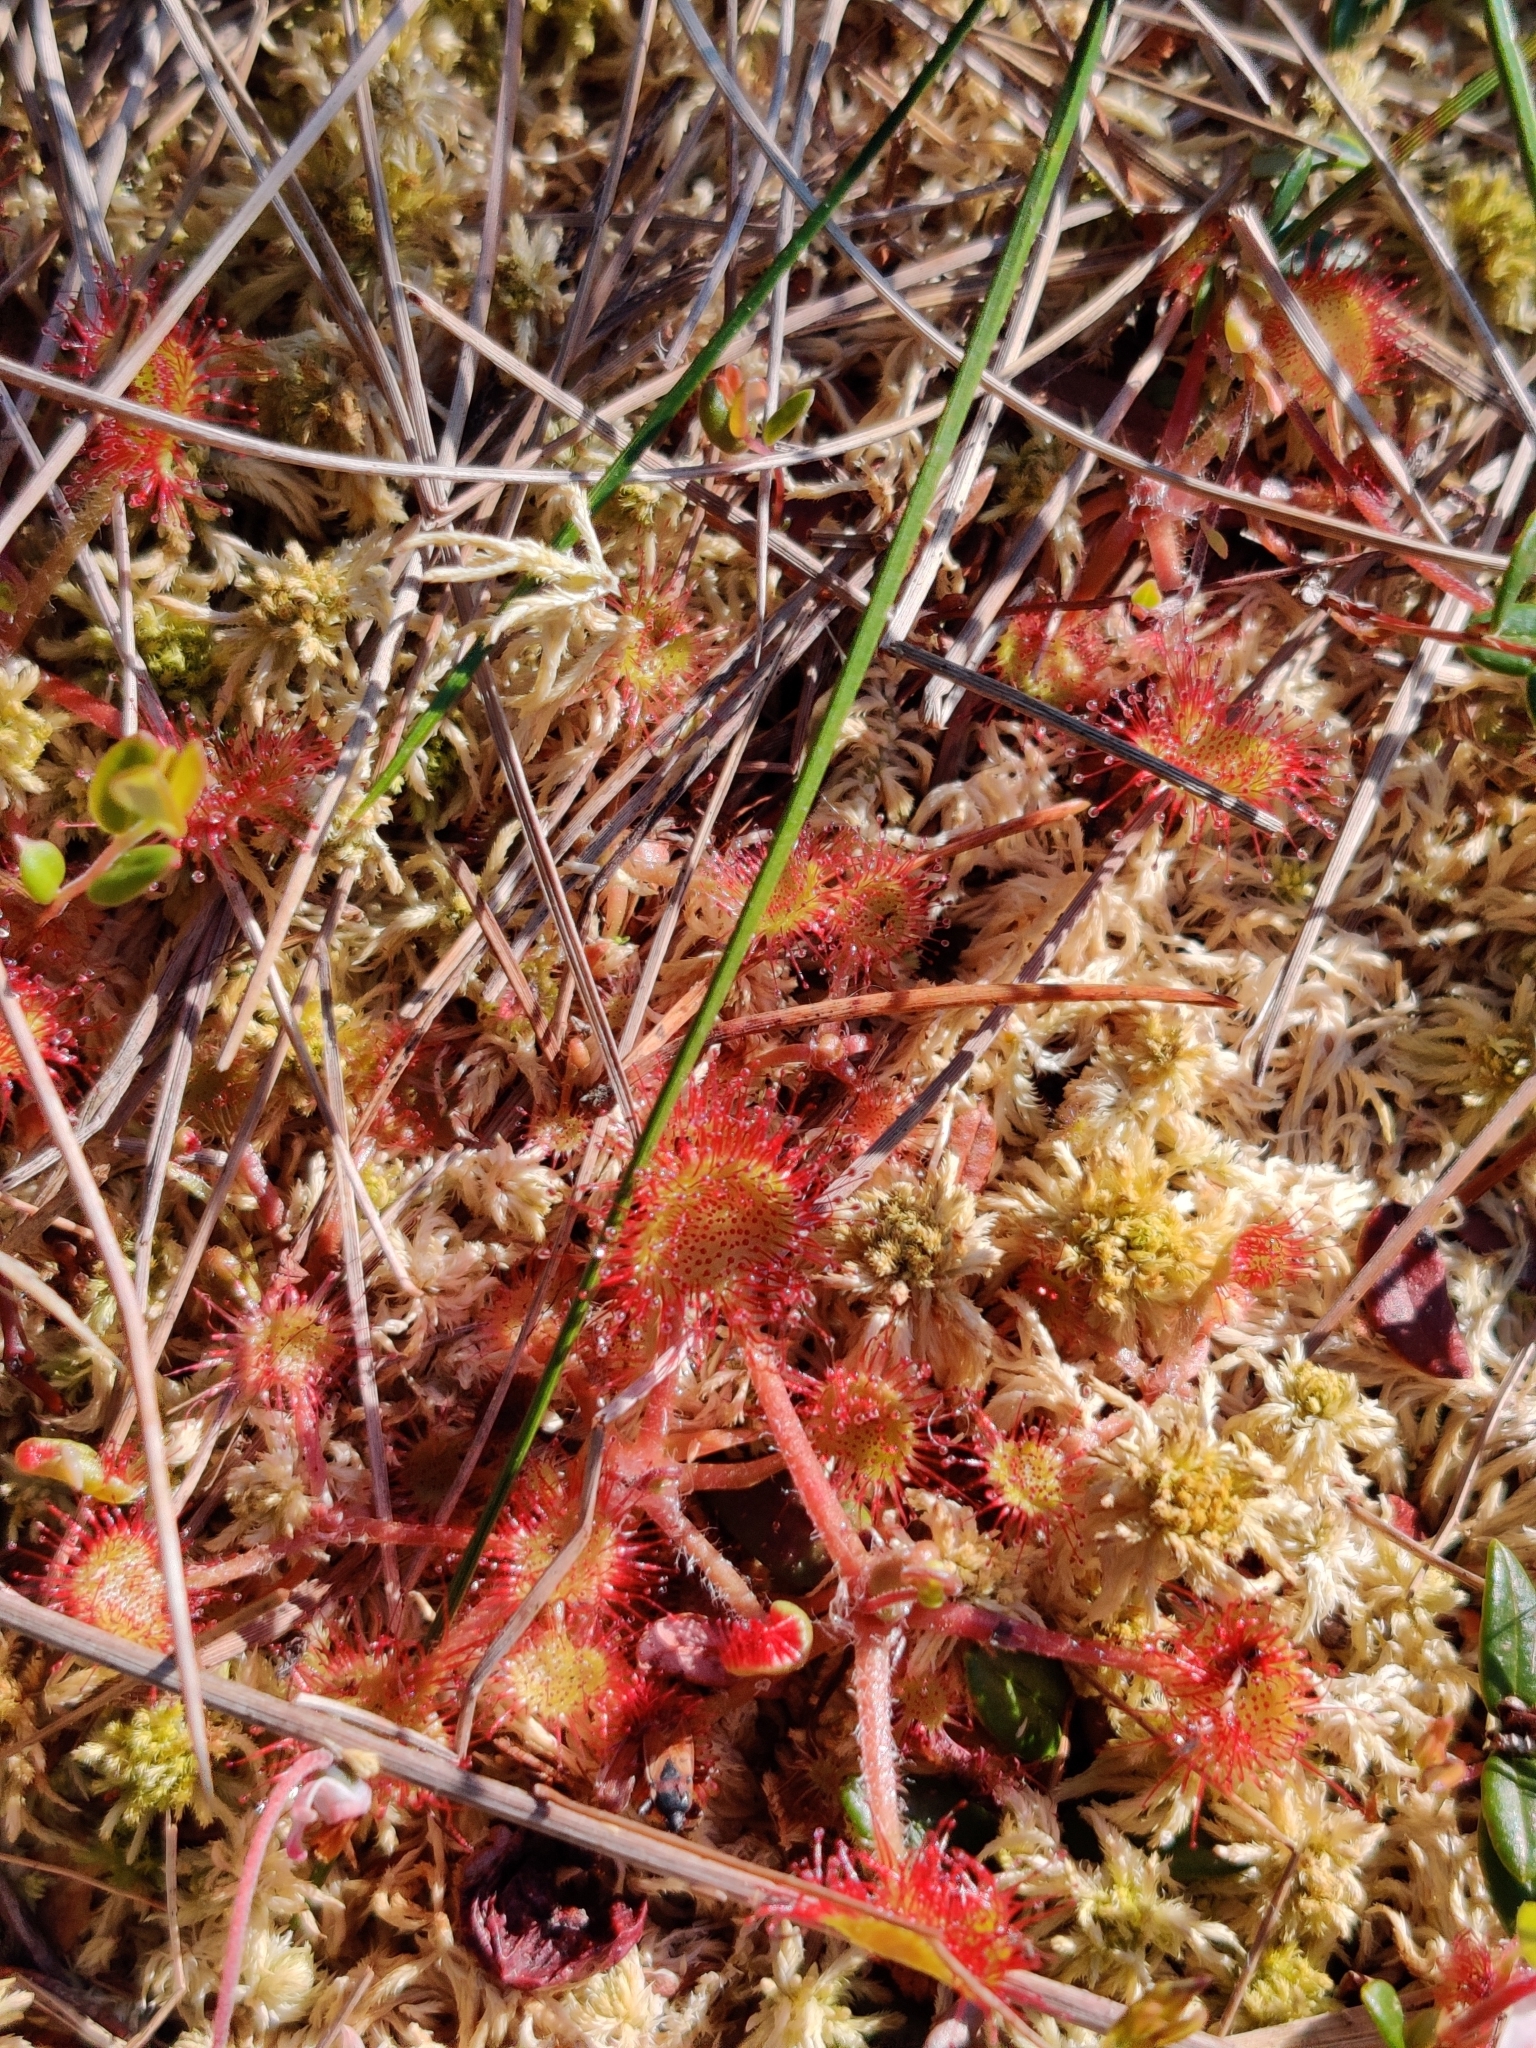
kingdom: Plantae
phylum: Tracheophyta
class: Magnoliopsida
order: Caryophyllales
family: Droseraceae
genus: Drosera
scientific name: Drosera rotundifolia
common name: Round-leaved sundew
